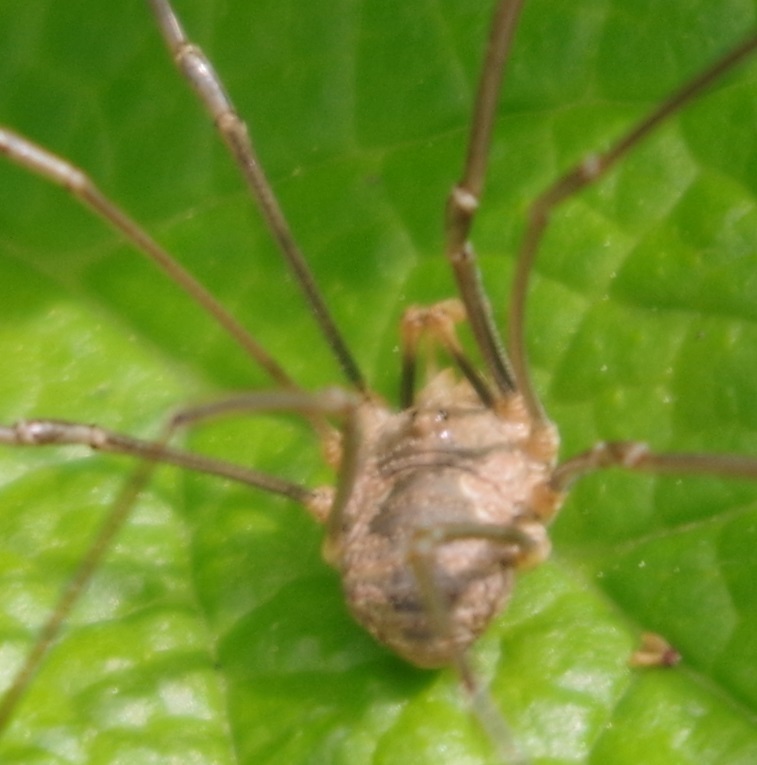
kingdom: Animalia
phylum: Arthropoda
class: Arachnida
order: Opiliones
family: Phalangiidae
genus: Phalangium
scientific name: Phalangium opilio
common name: Daddy longleg
